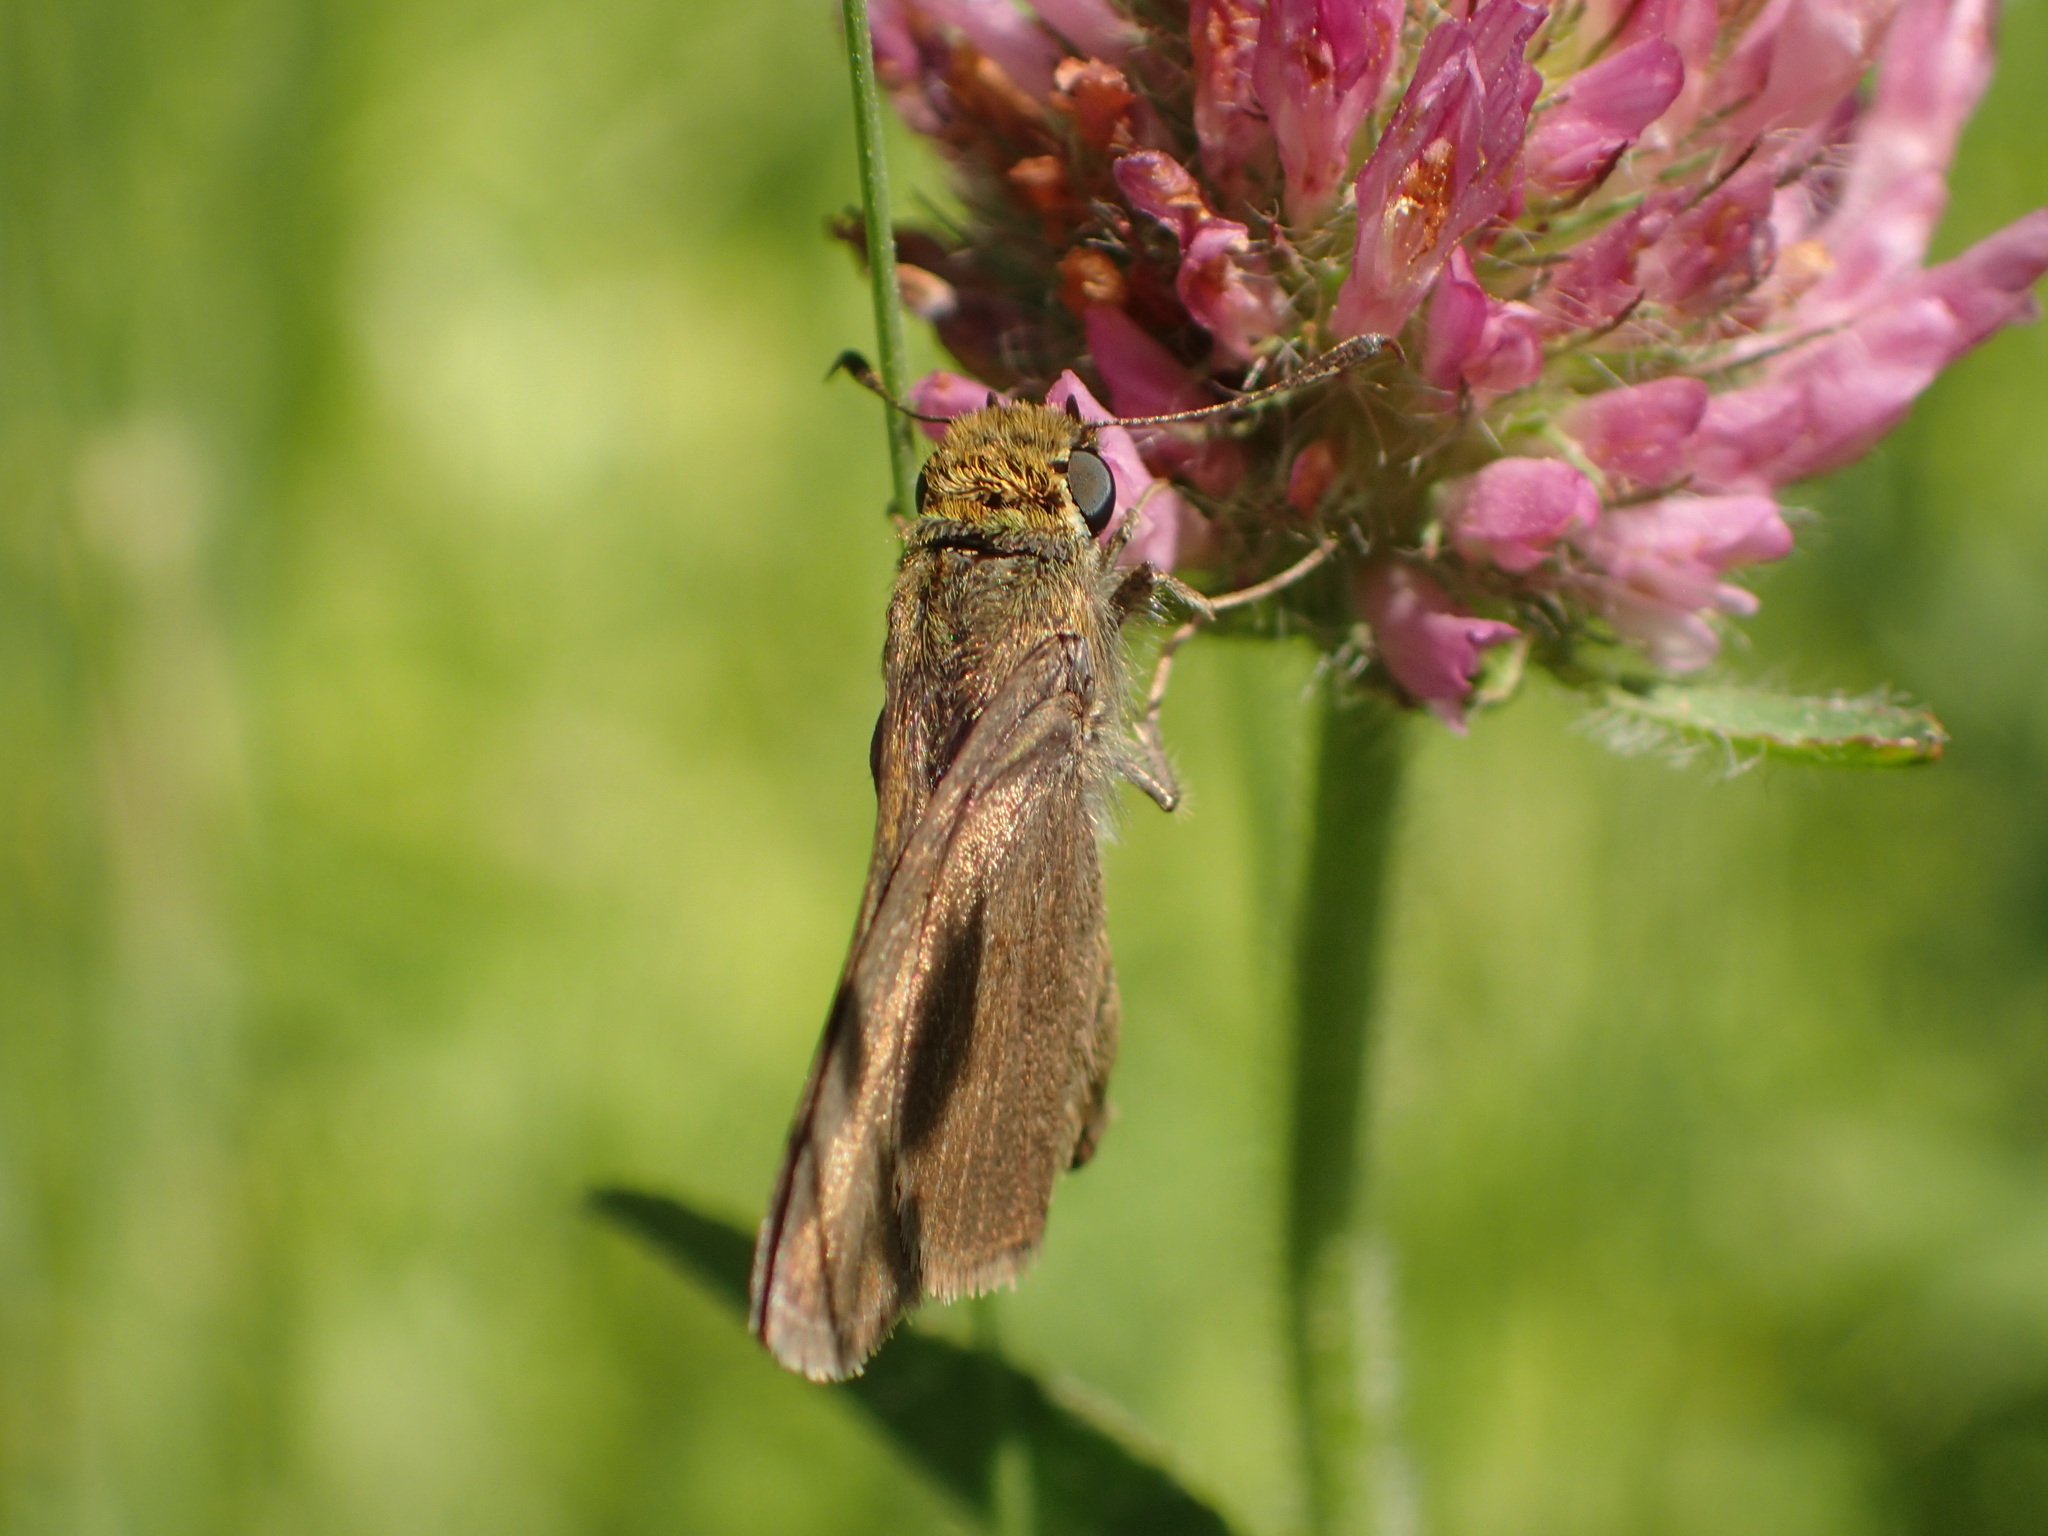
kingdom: Animalia
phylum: Arthropoda
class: Insecta
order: Lepidoptera
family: Hesperiidae
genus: Euphyes
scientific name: Euphyes vestris
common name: Dun skipper
